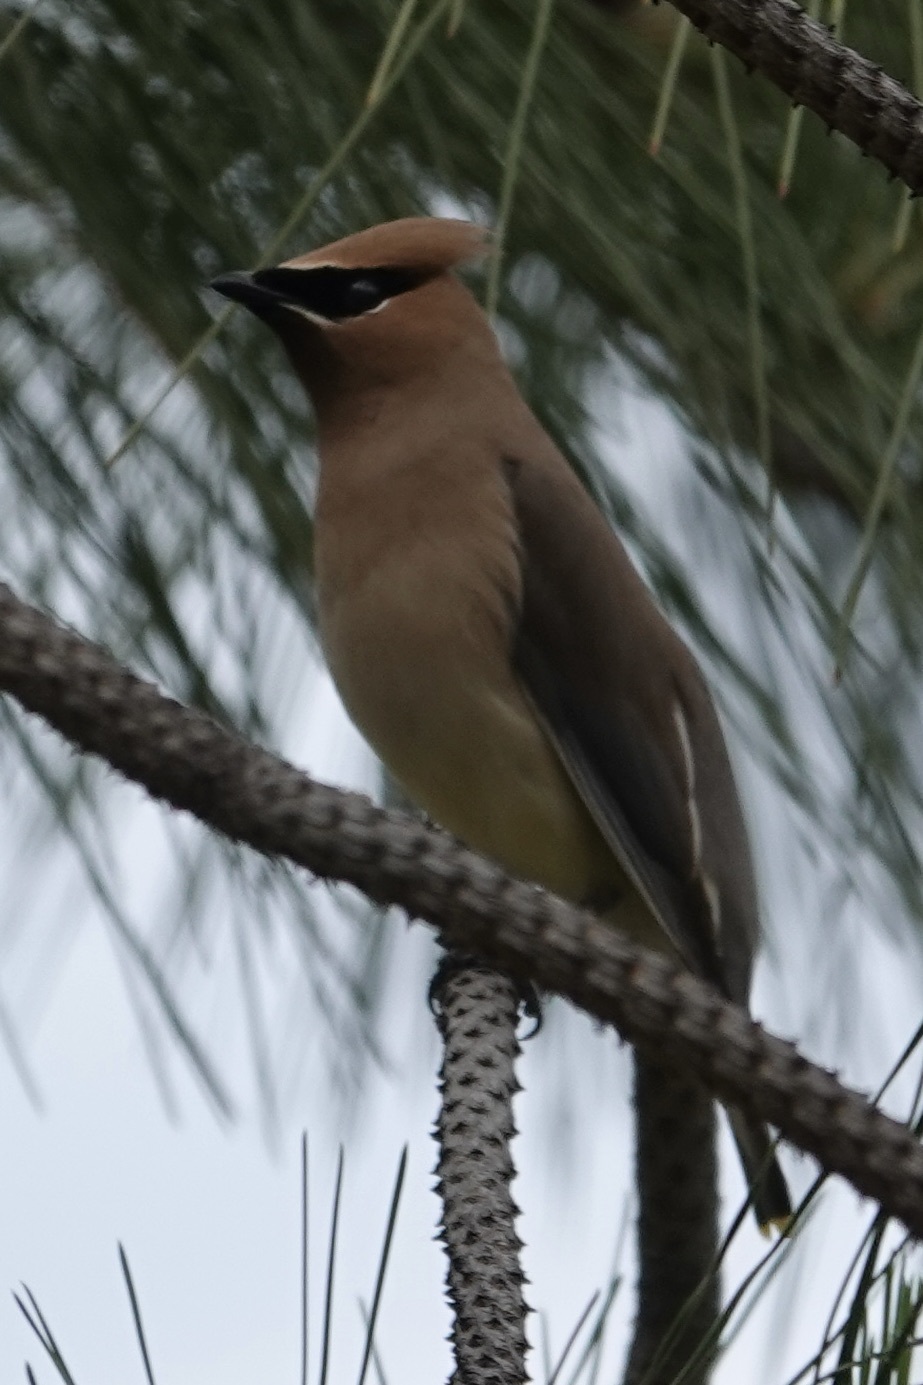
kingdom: Animalia
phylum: Chordata
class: Aves
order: Passeriformes
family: Bombycillidae
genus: Bombycilla
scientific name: Bombycilla cedrorum
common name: Cedar waxwing
